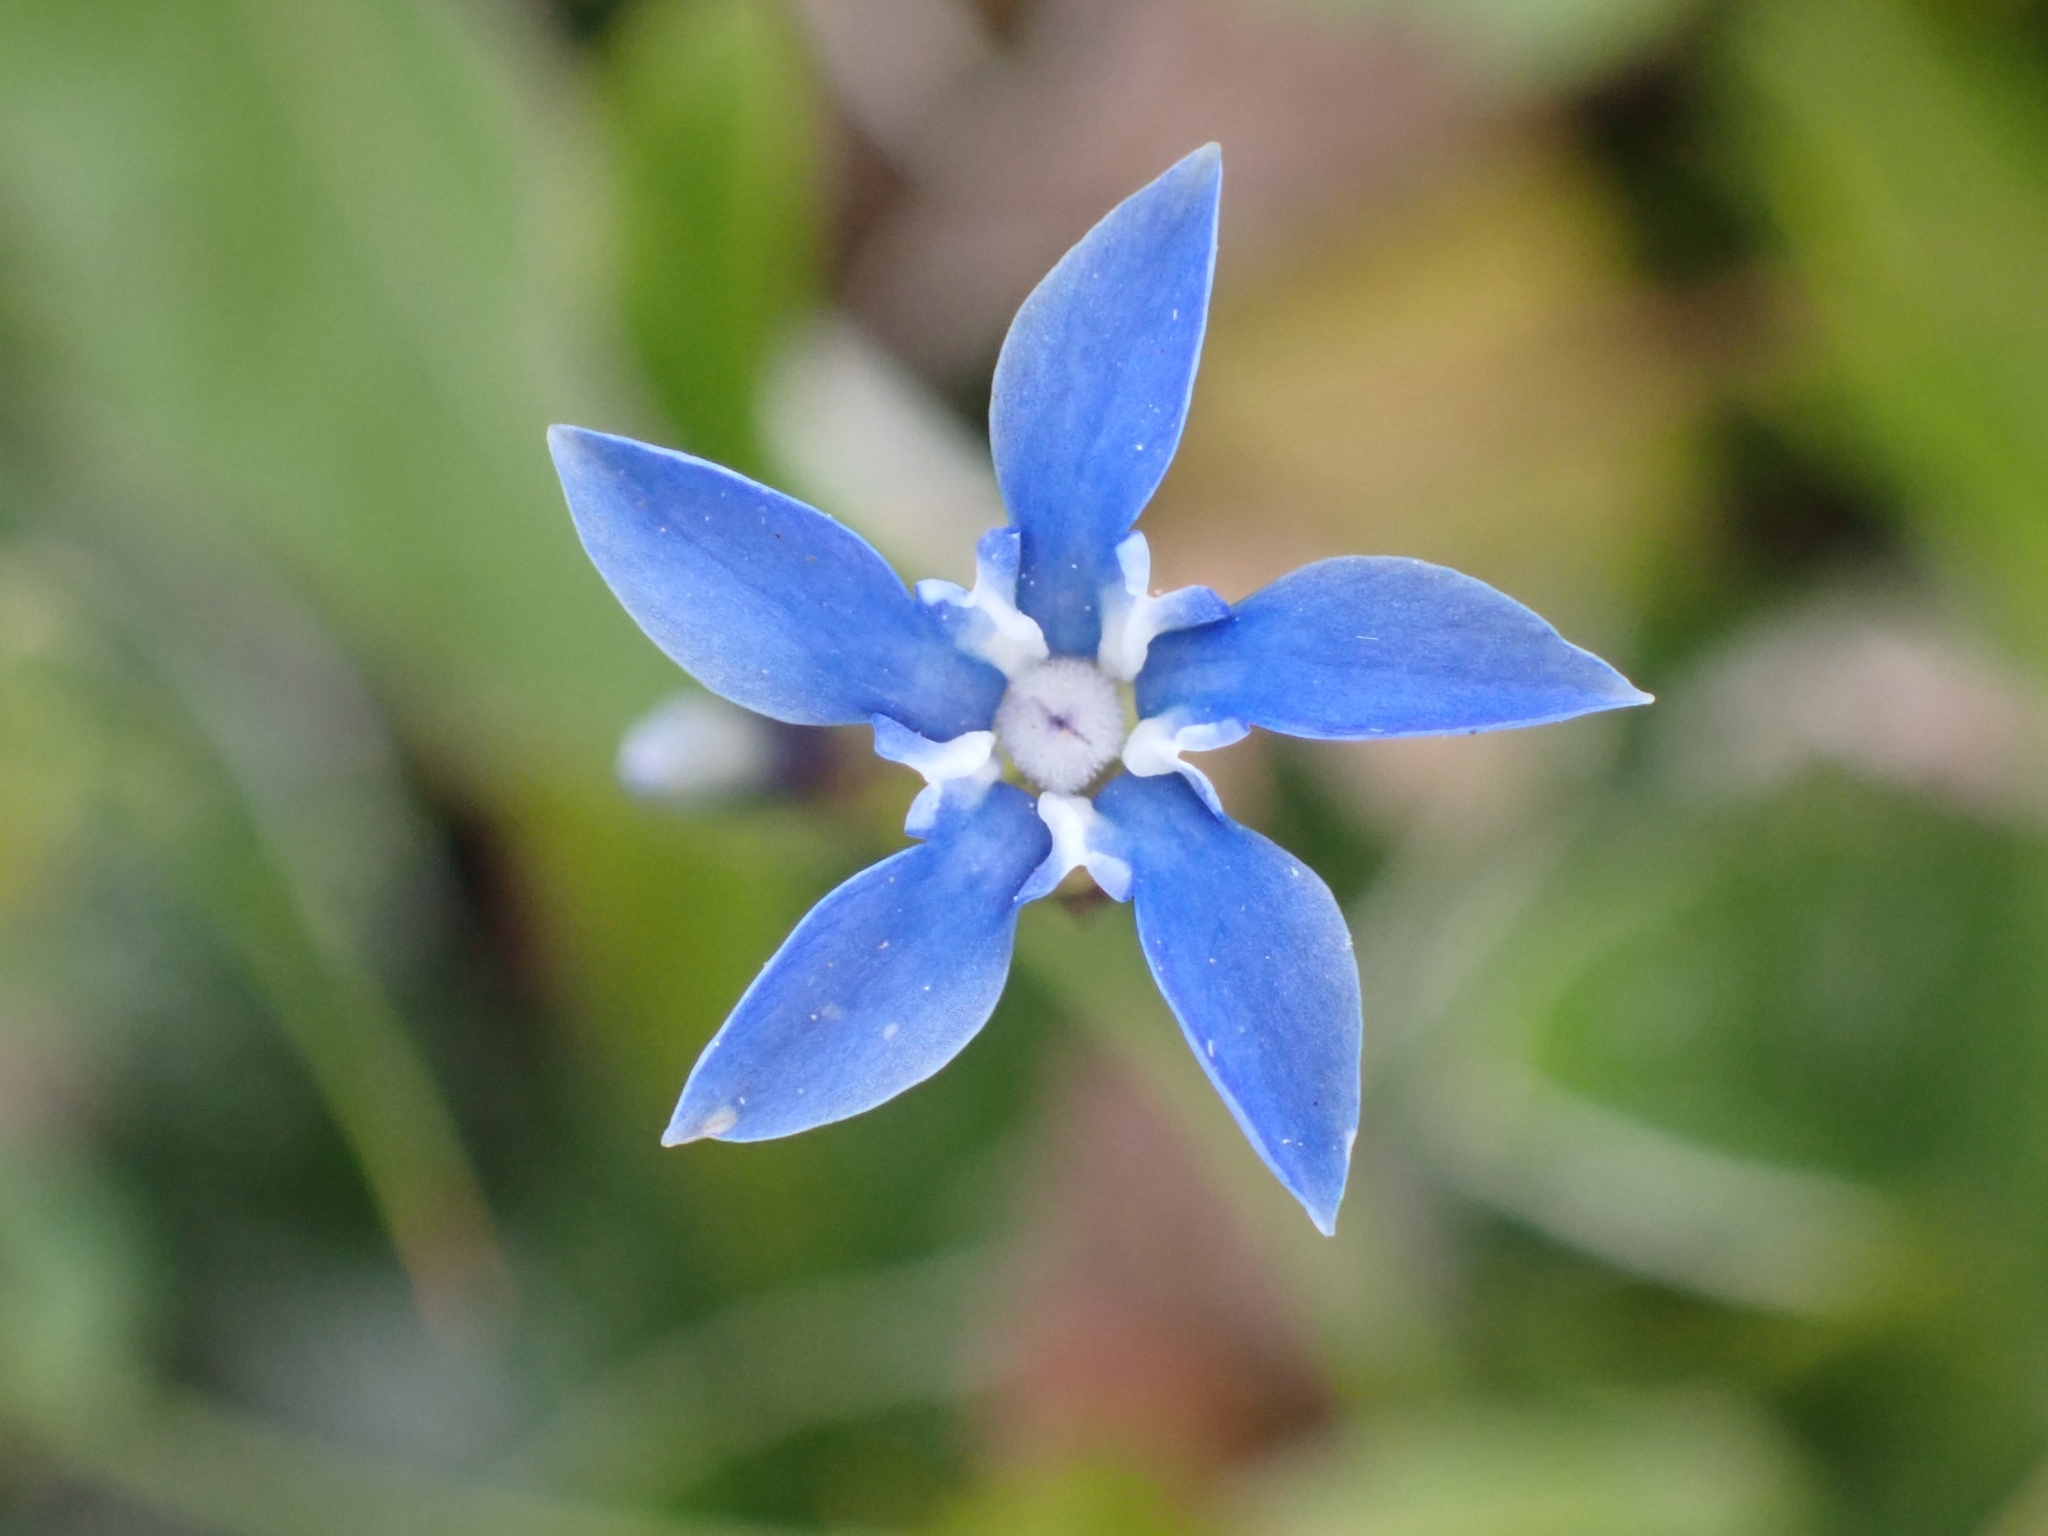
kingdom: Plantae
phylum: Tracheophyta
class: Magnoliopsida
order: Gentianales
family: Gentianaceae
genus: Gentiana
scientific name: Gentiana nivalis
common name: Alpine gentian
